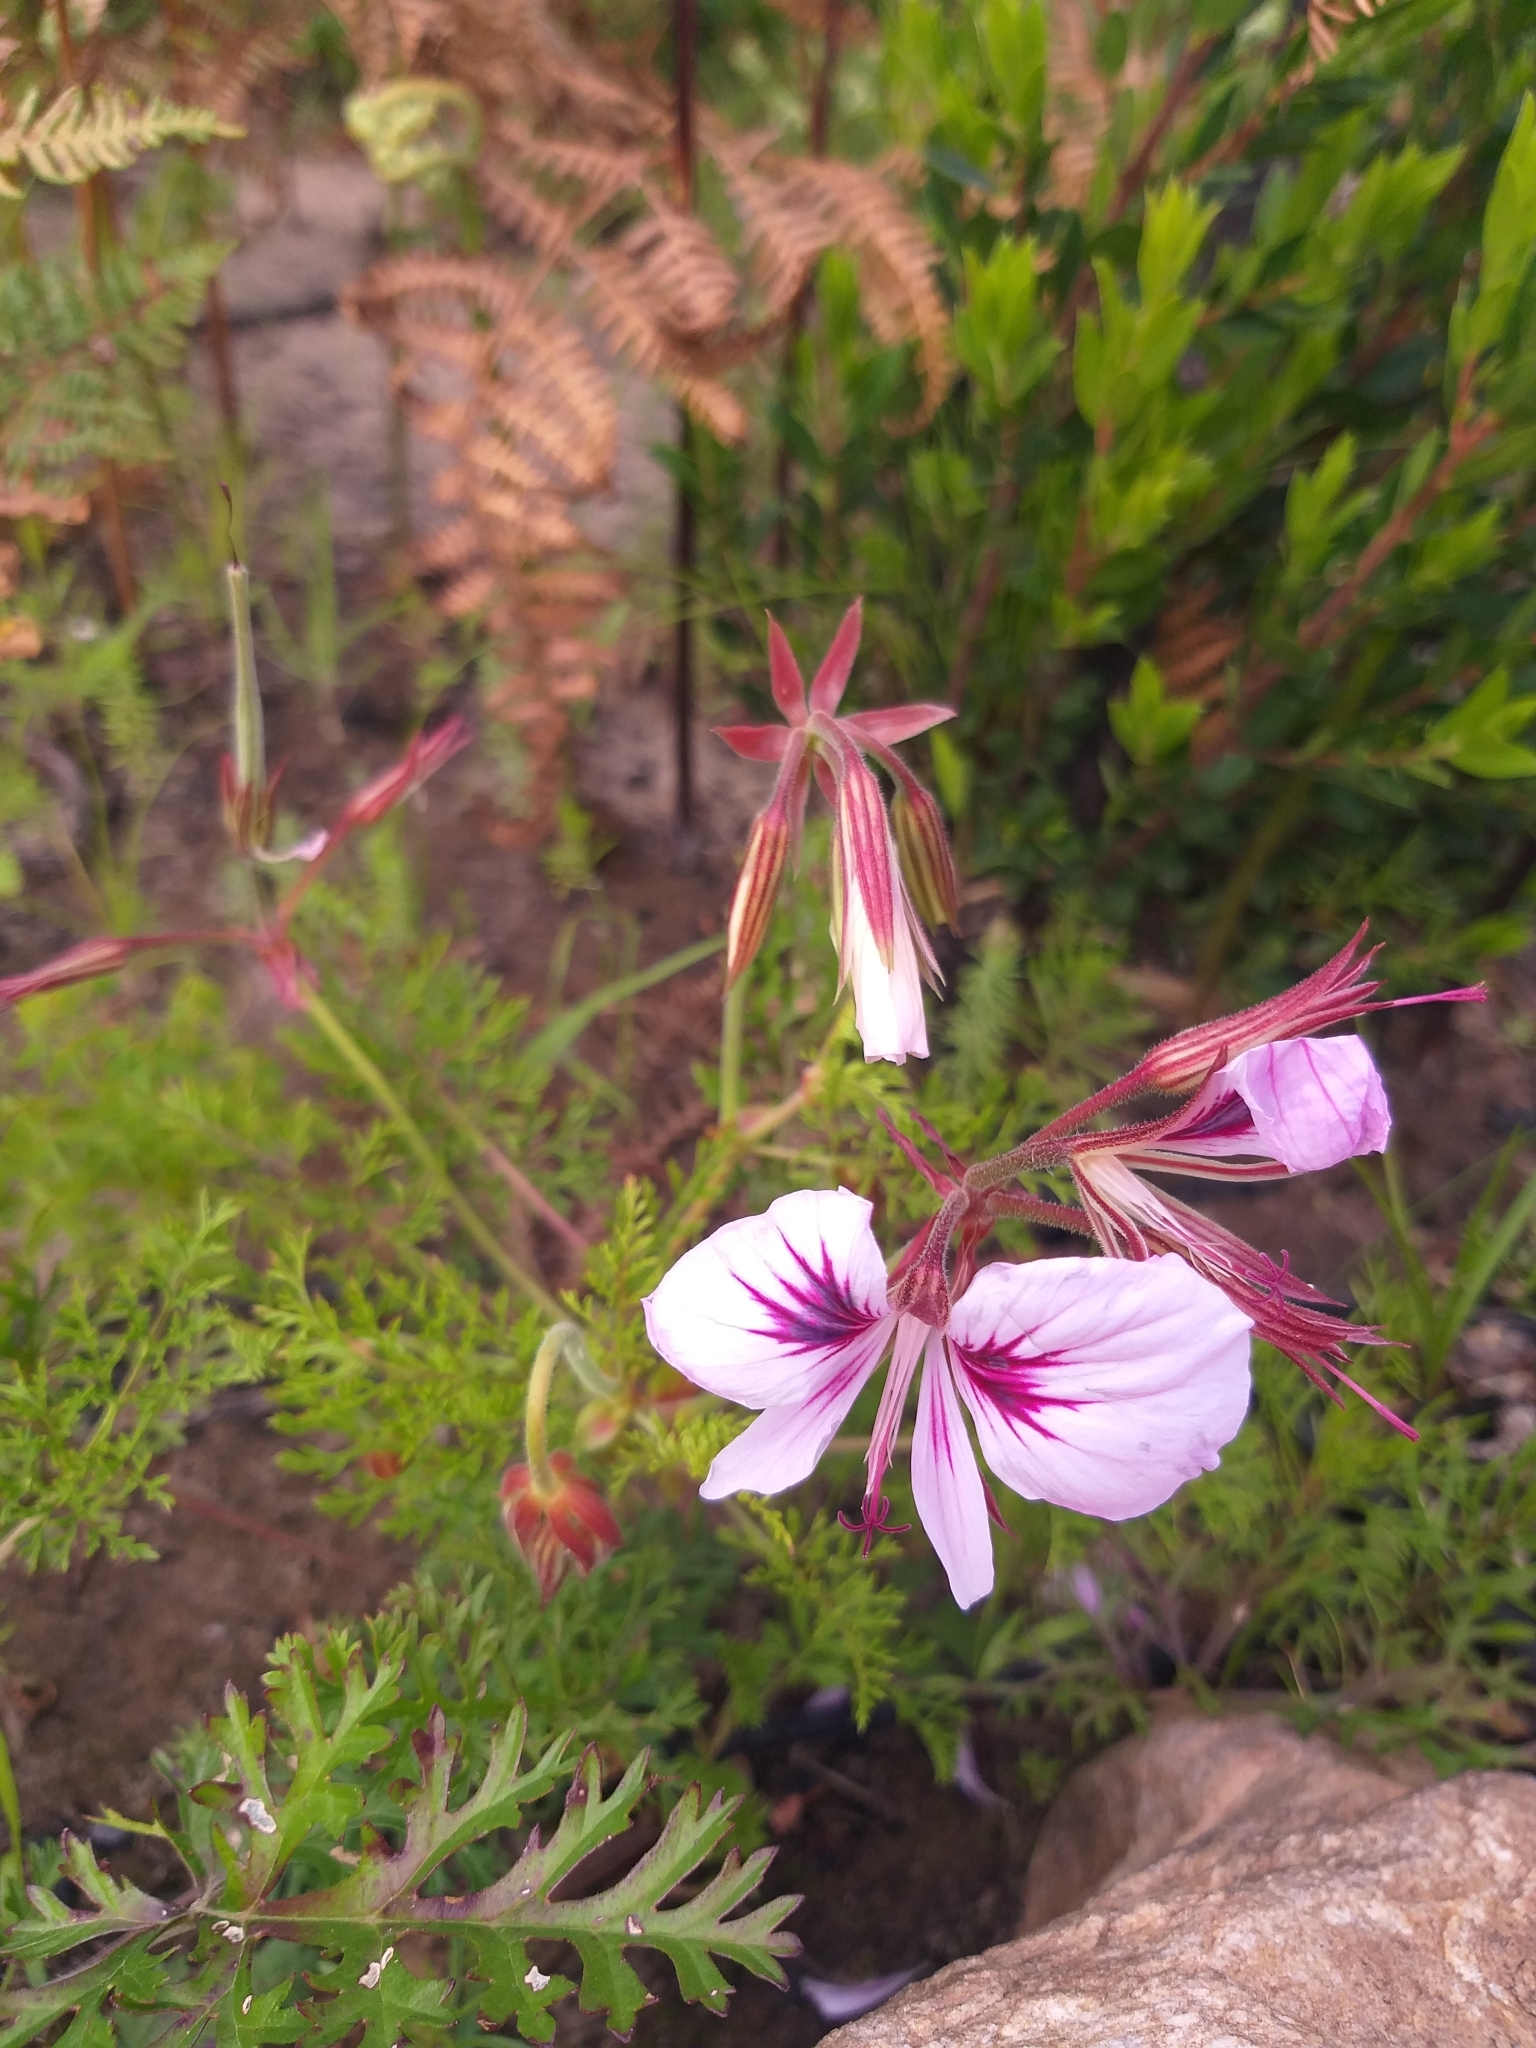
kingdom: Plantae
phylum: Tracheophyta
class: Magnoliopsida
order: Geraniales
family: Geraniaceae
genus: Pelargonium
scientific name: Pelargonium myrrhifolium
